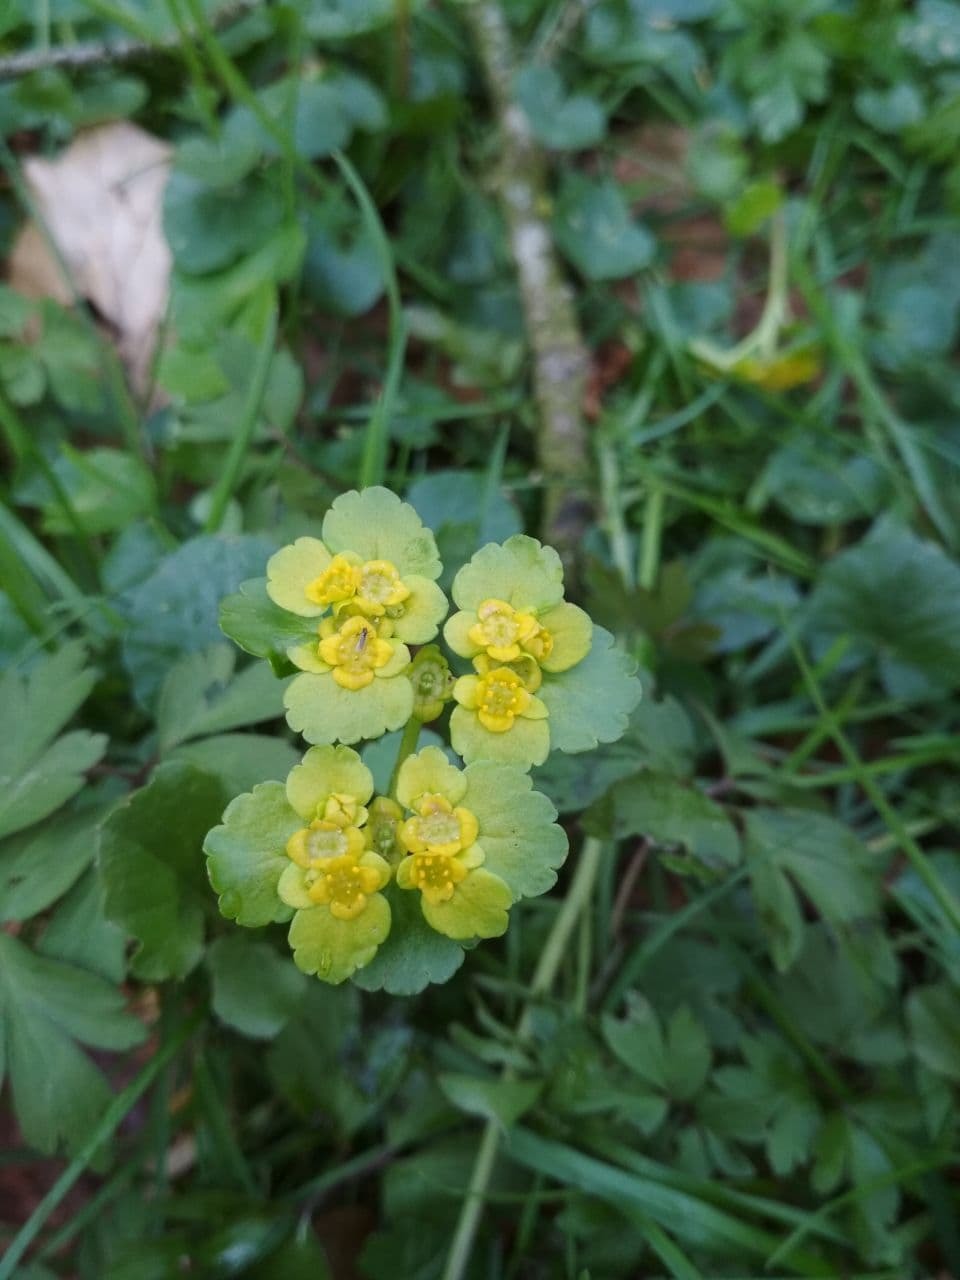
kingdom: Plantae
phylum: Tracheophyta
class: Magnoliopsida
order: Saxifragales
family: Saxifragaceae
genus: Chrysosplenium
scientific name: Chrysosplenium alternifolium
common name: Alternate-leaved golden-saxifrage
